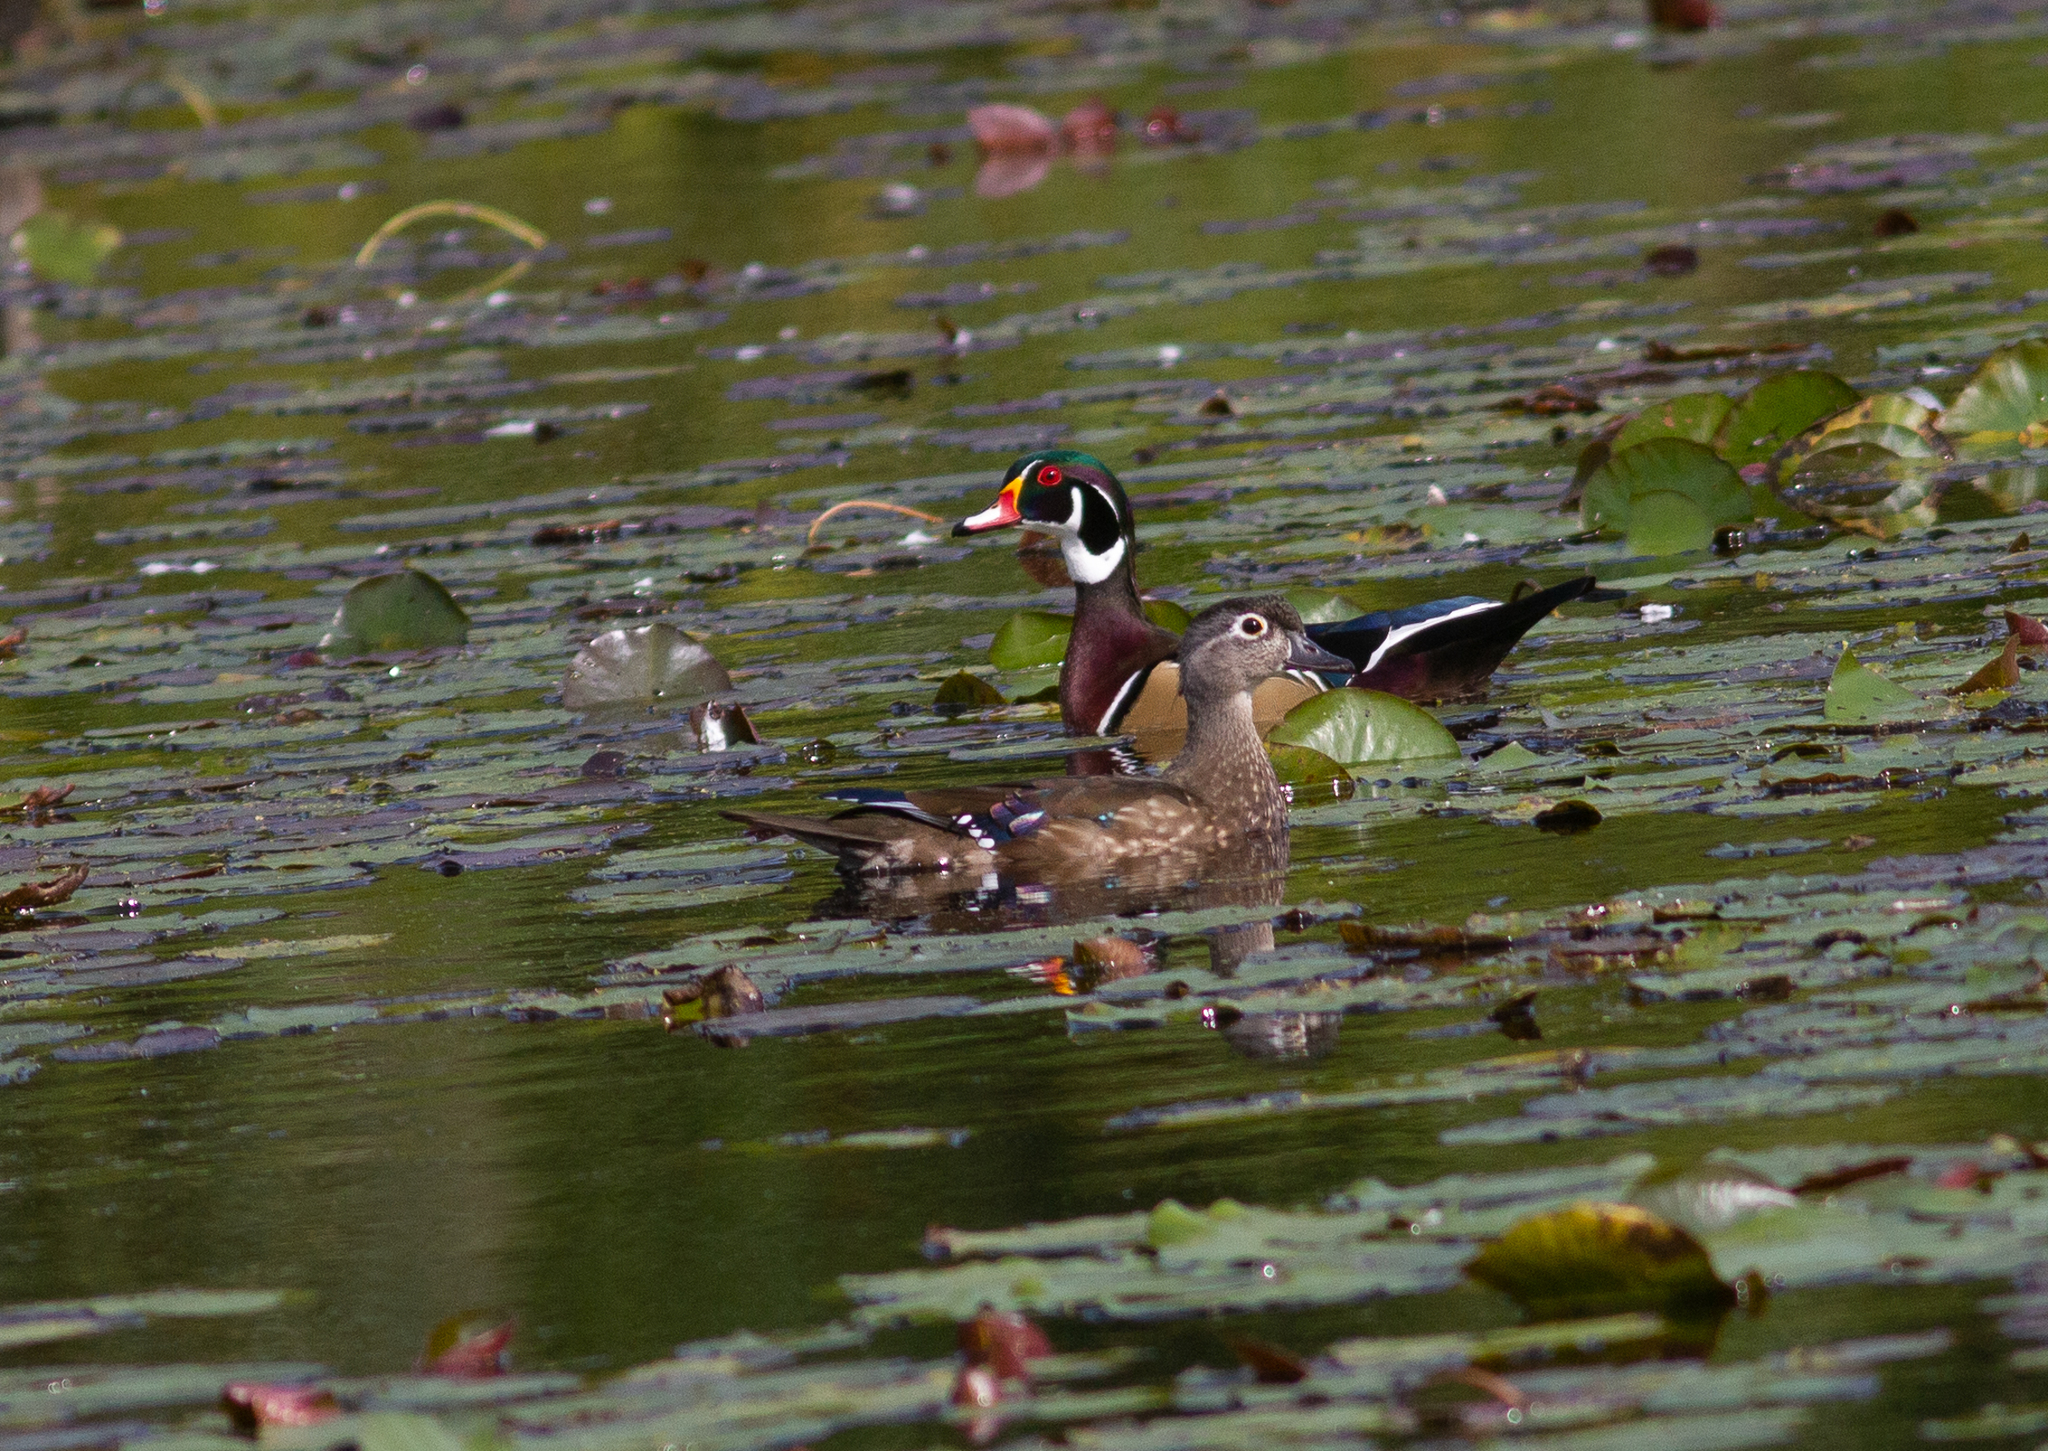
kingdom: Animalia
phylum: Chordata
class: Aves
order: Anseriformes
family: Anatidae
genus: Aix
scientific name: Aix sponsa
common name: Wood duck
